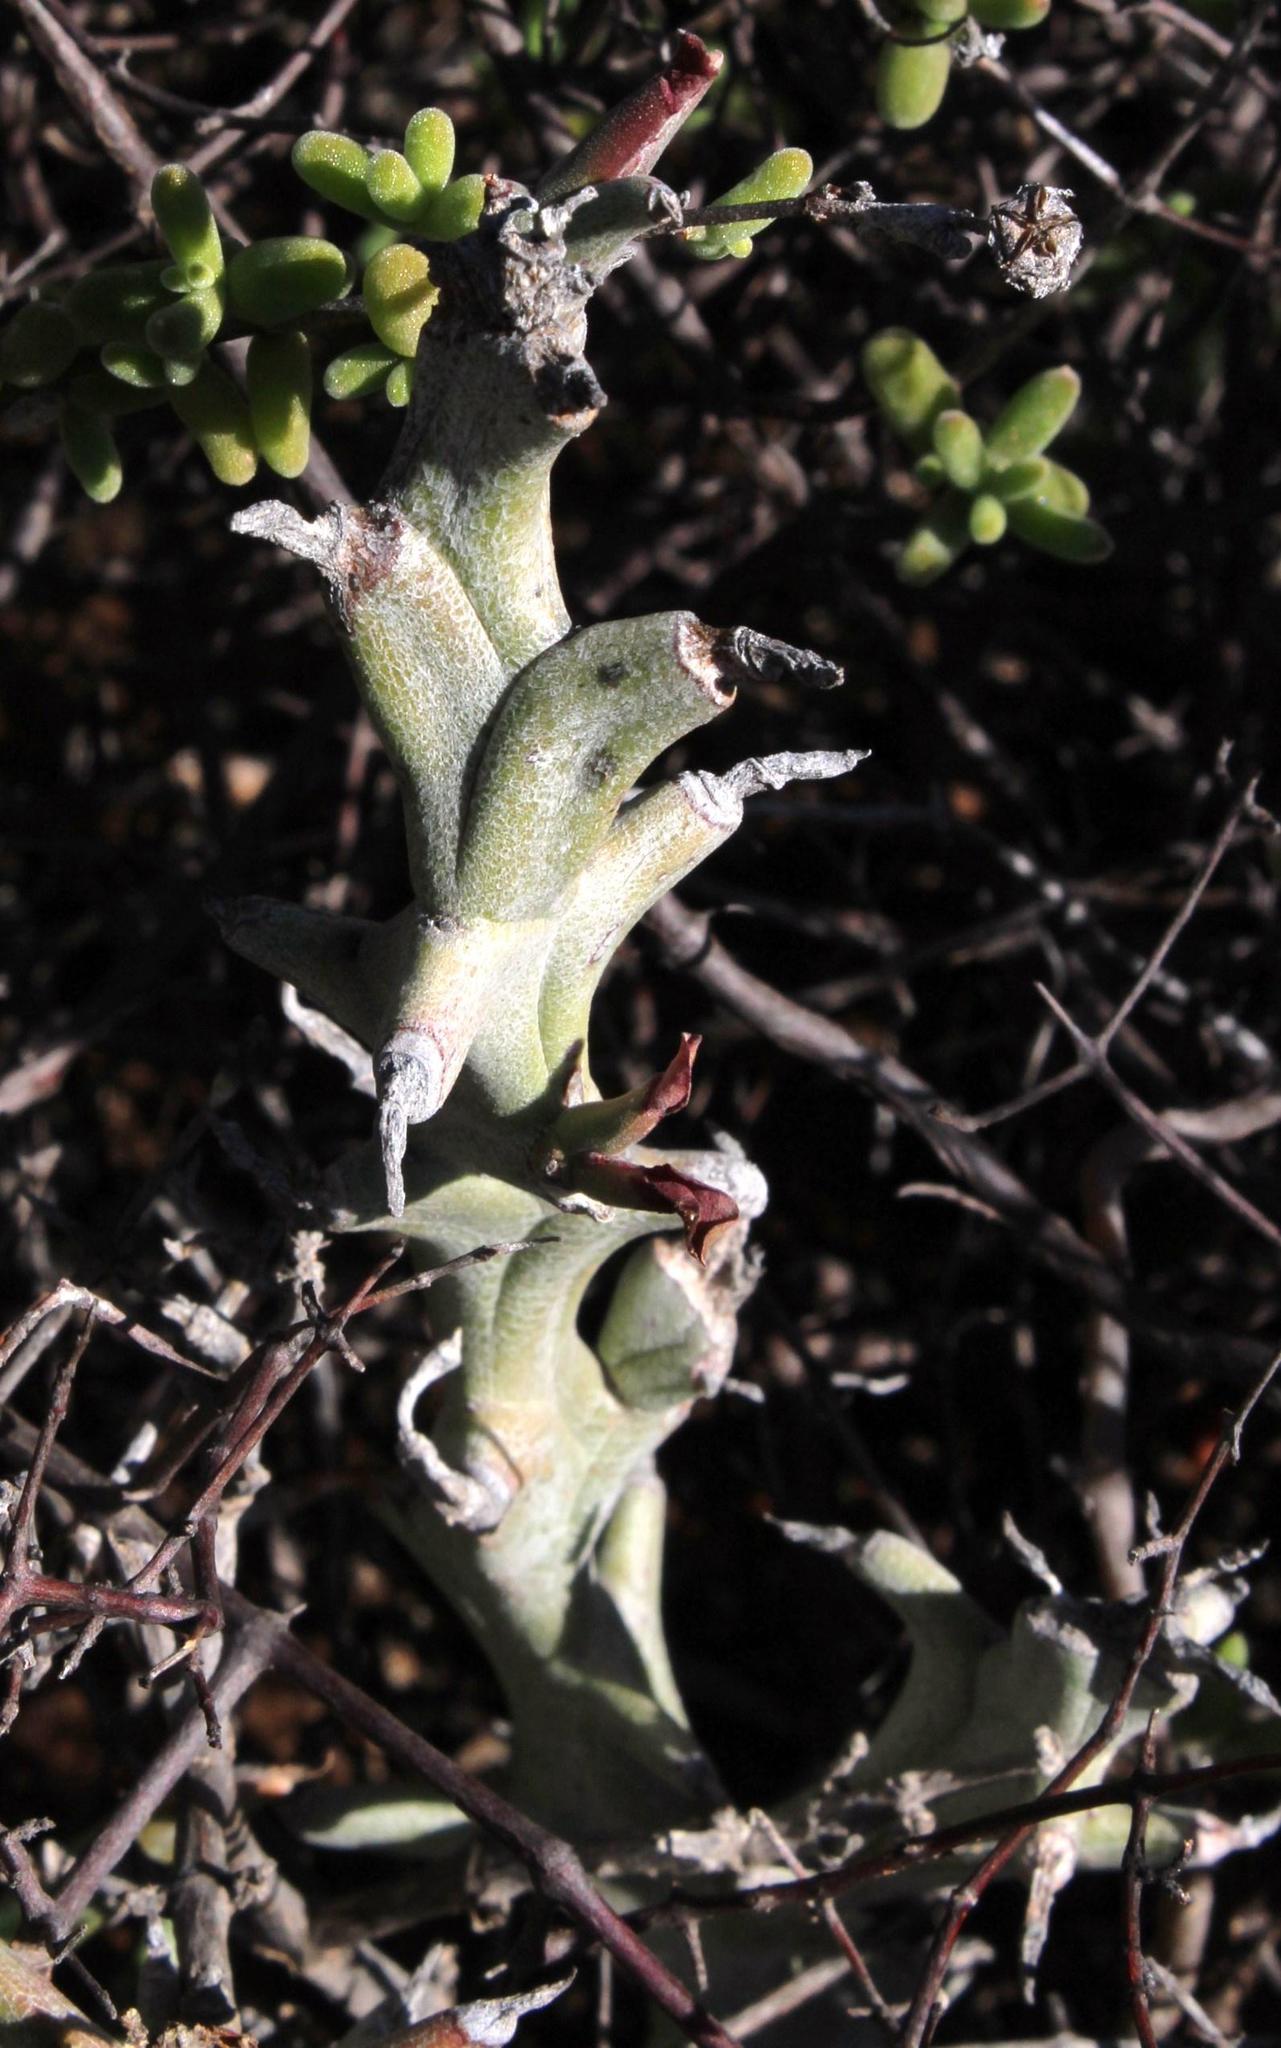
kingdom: Plantae
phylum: Tracheophyta
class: Magnoliopsida
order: Malpighiales
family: Euphorbiaceae
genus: Euphorbia
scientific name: Euphorbia hamata
